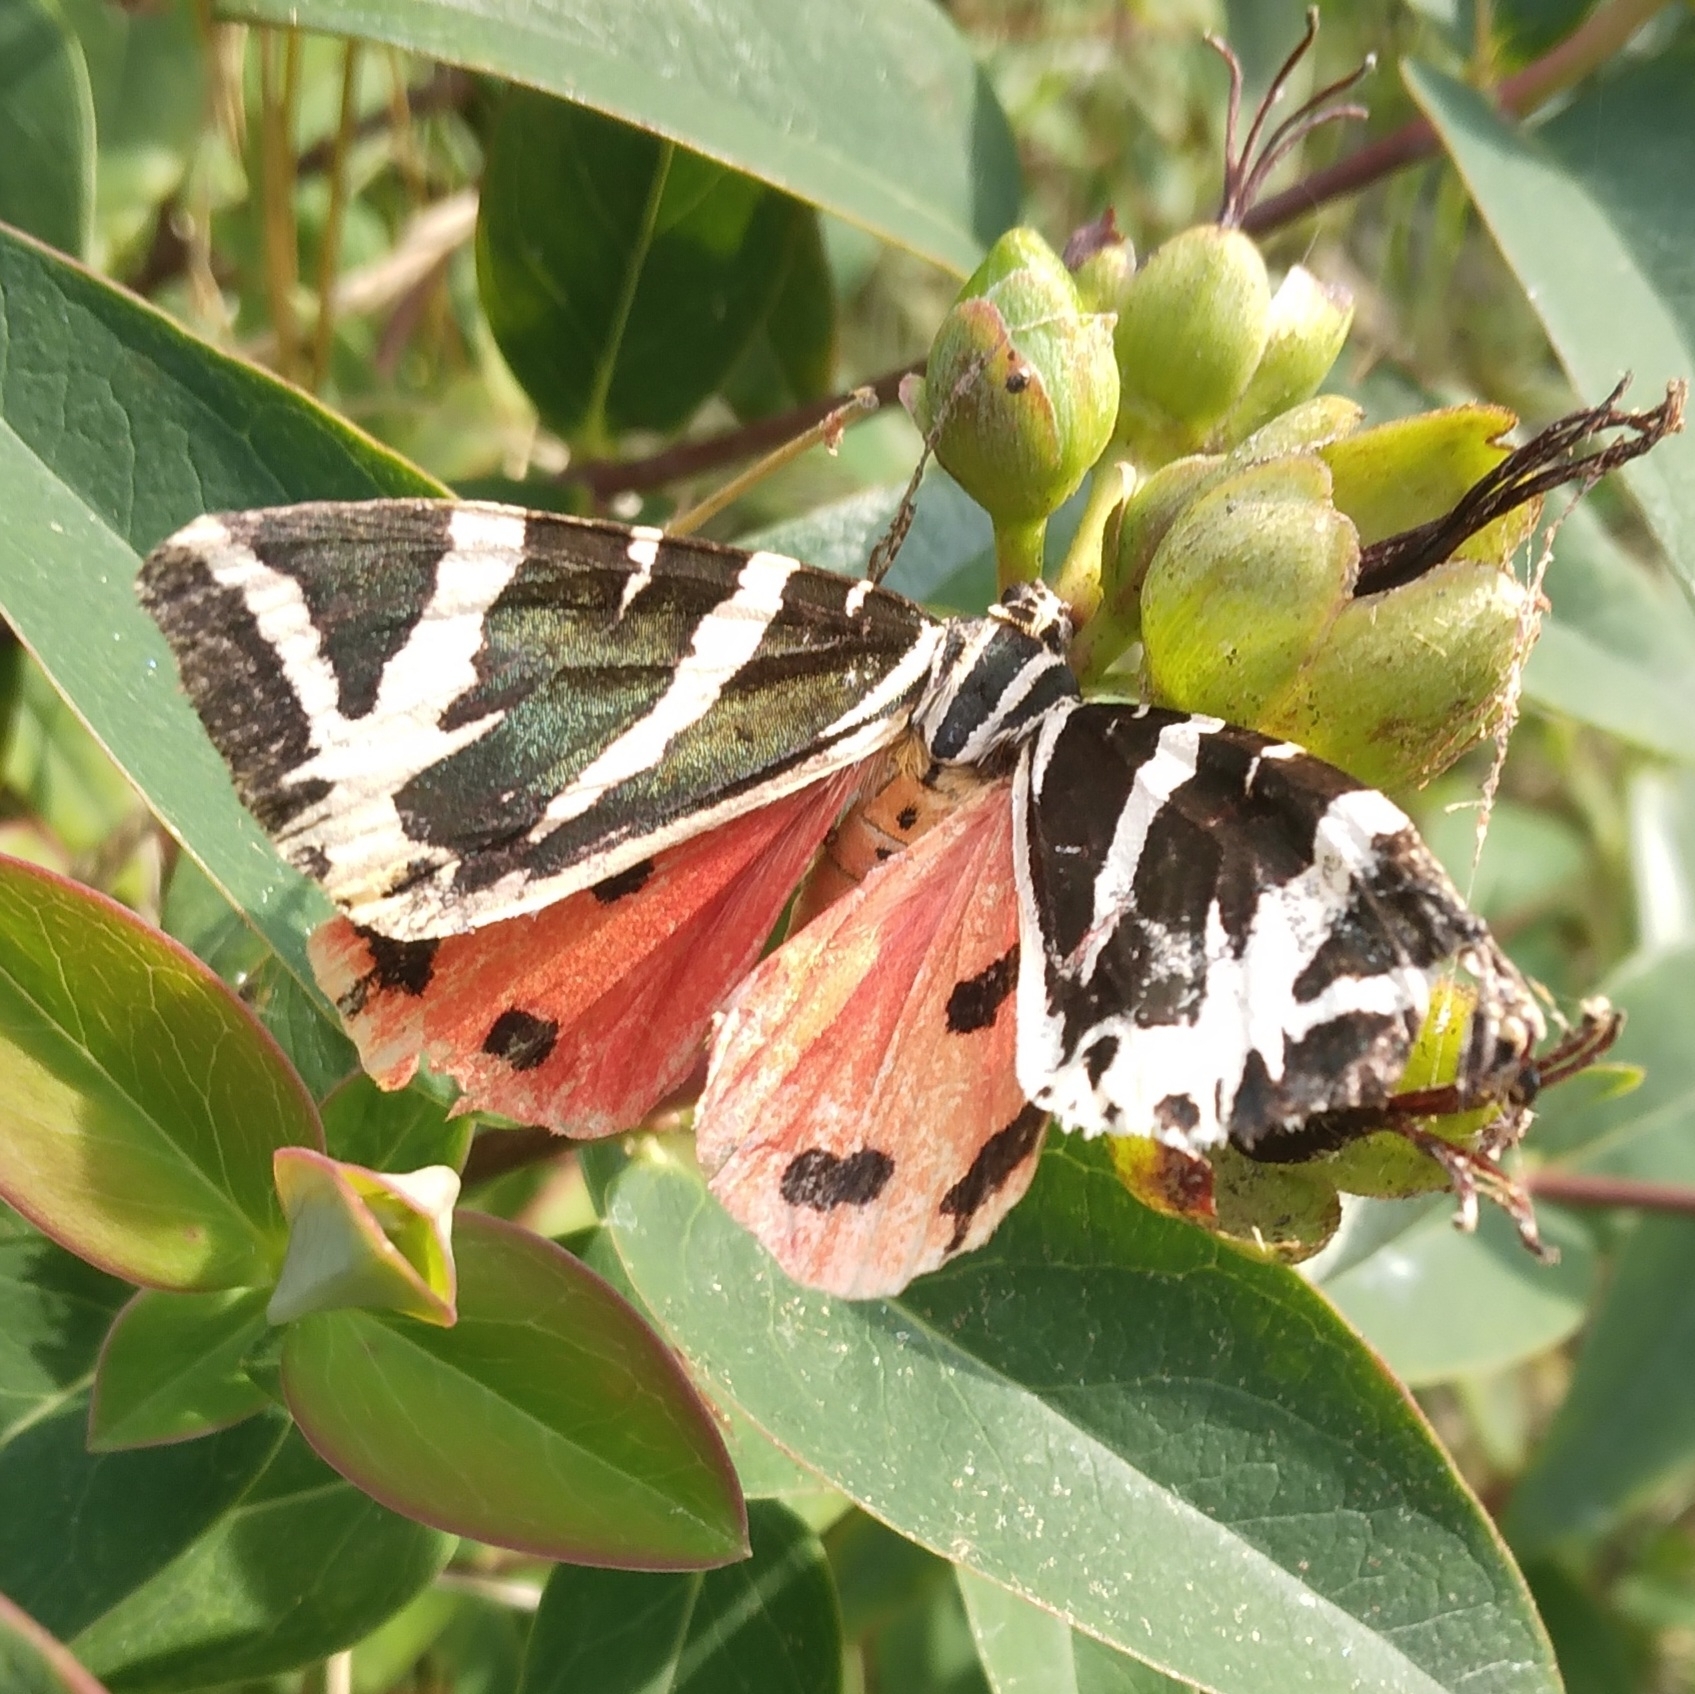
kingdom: Animalia
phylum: Arthropoda
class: Insecta
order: Lepidoptera
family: Erebidae
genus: Euplagia
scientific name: Euplagia quadripunctaria
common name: Jersey tiger
